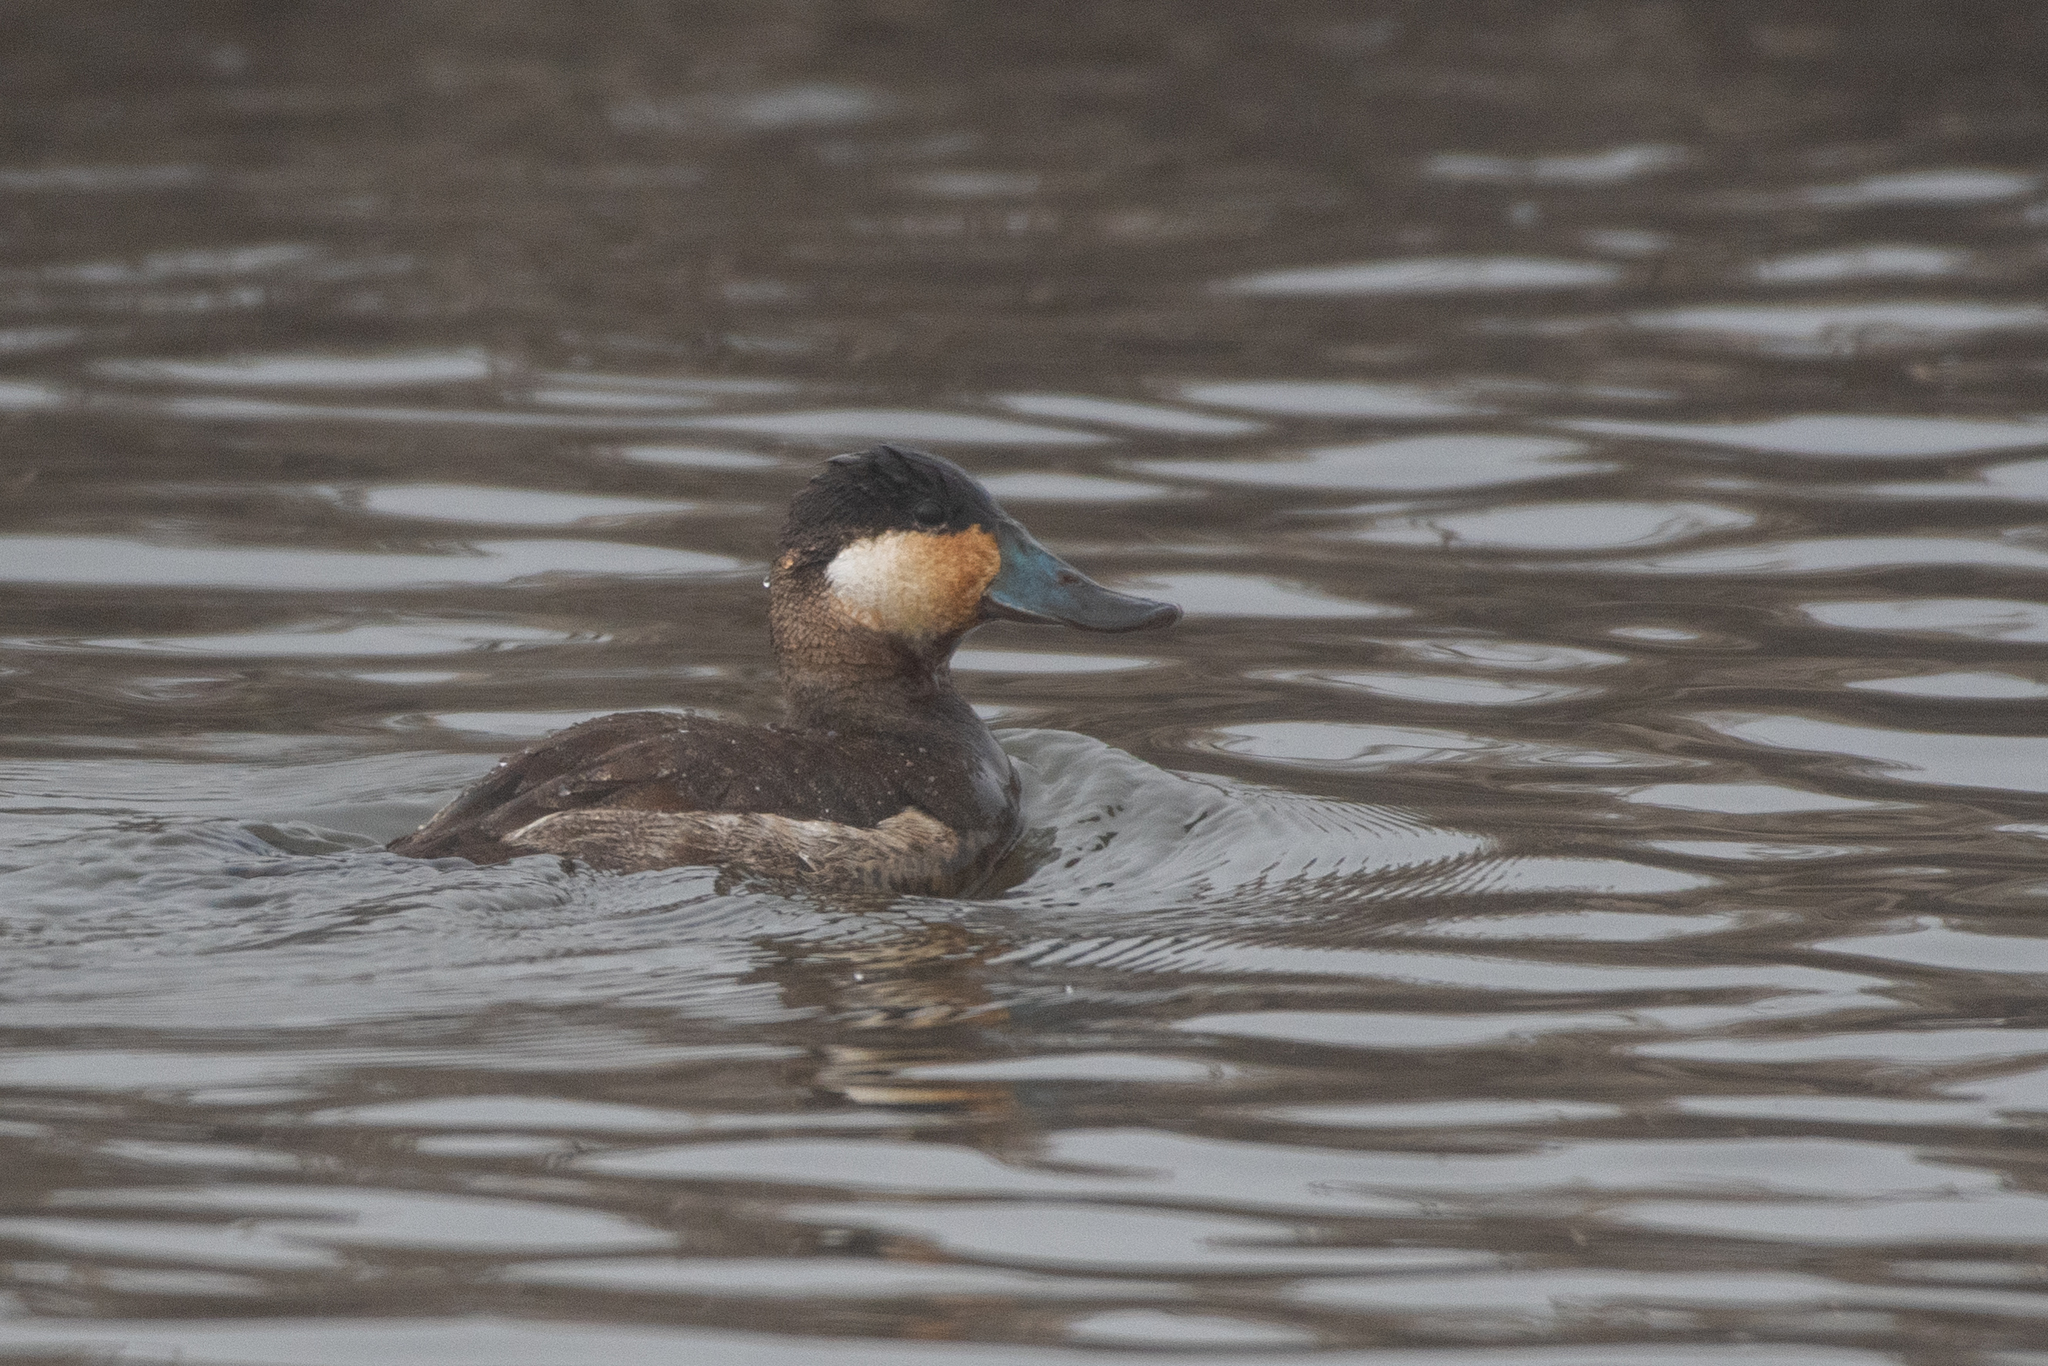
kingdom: Animalia
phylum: Chordata
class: Aves
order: Anseriformes
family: Anatidae
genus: Oxyura
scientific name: Oxyura jamaicensis
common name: Ruddy duck
